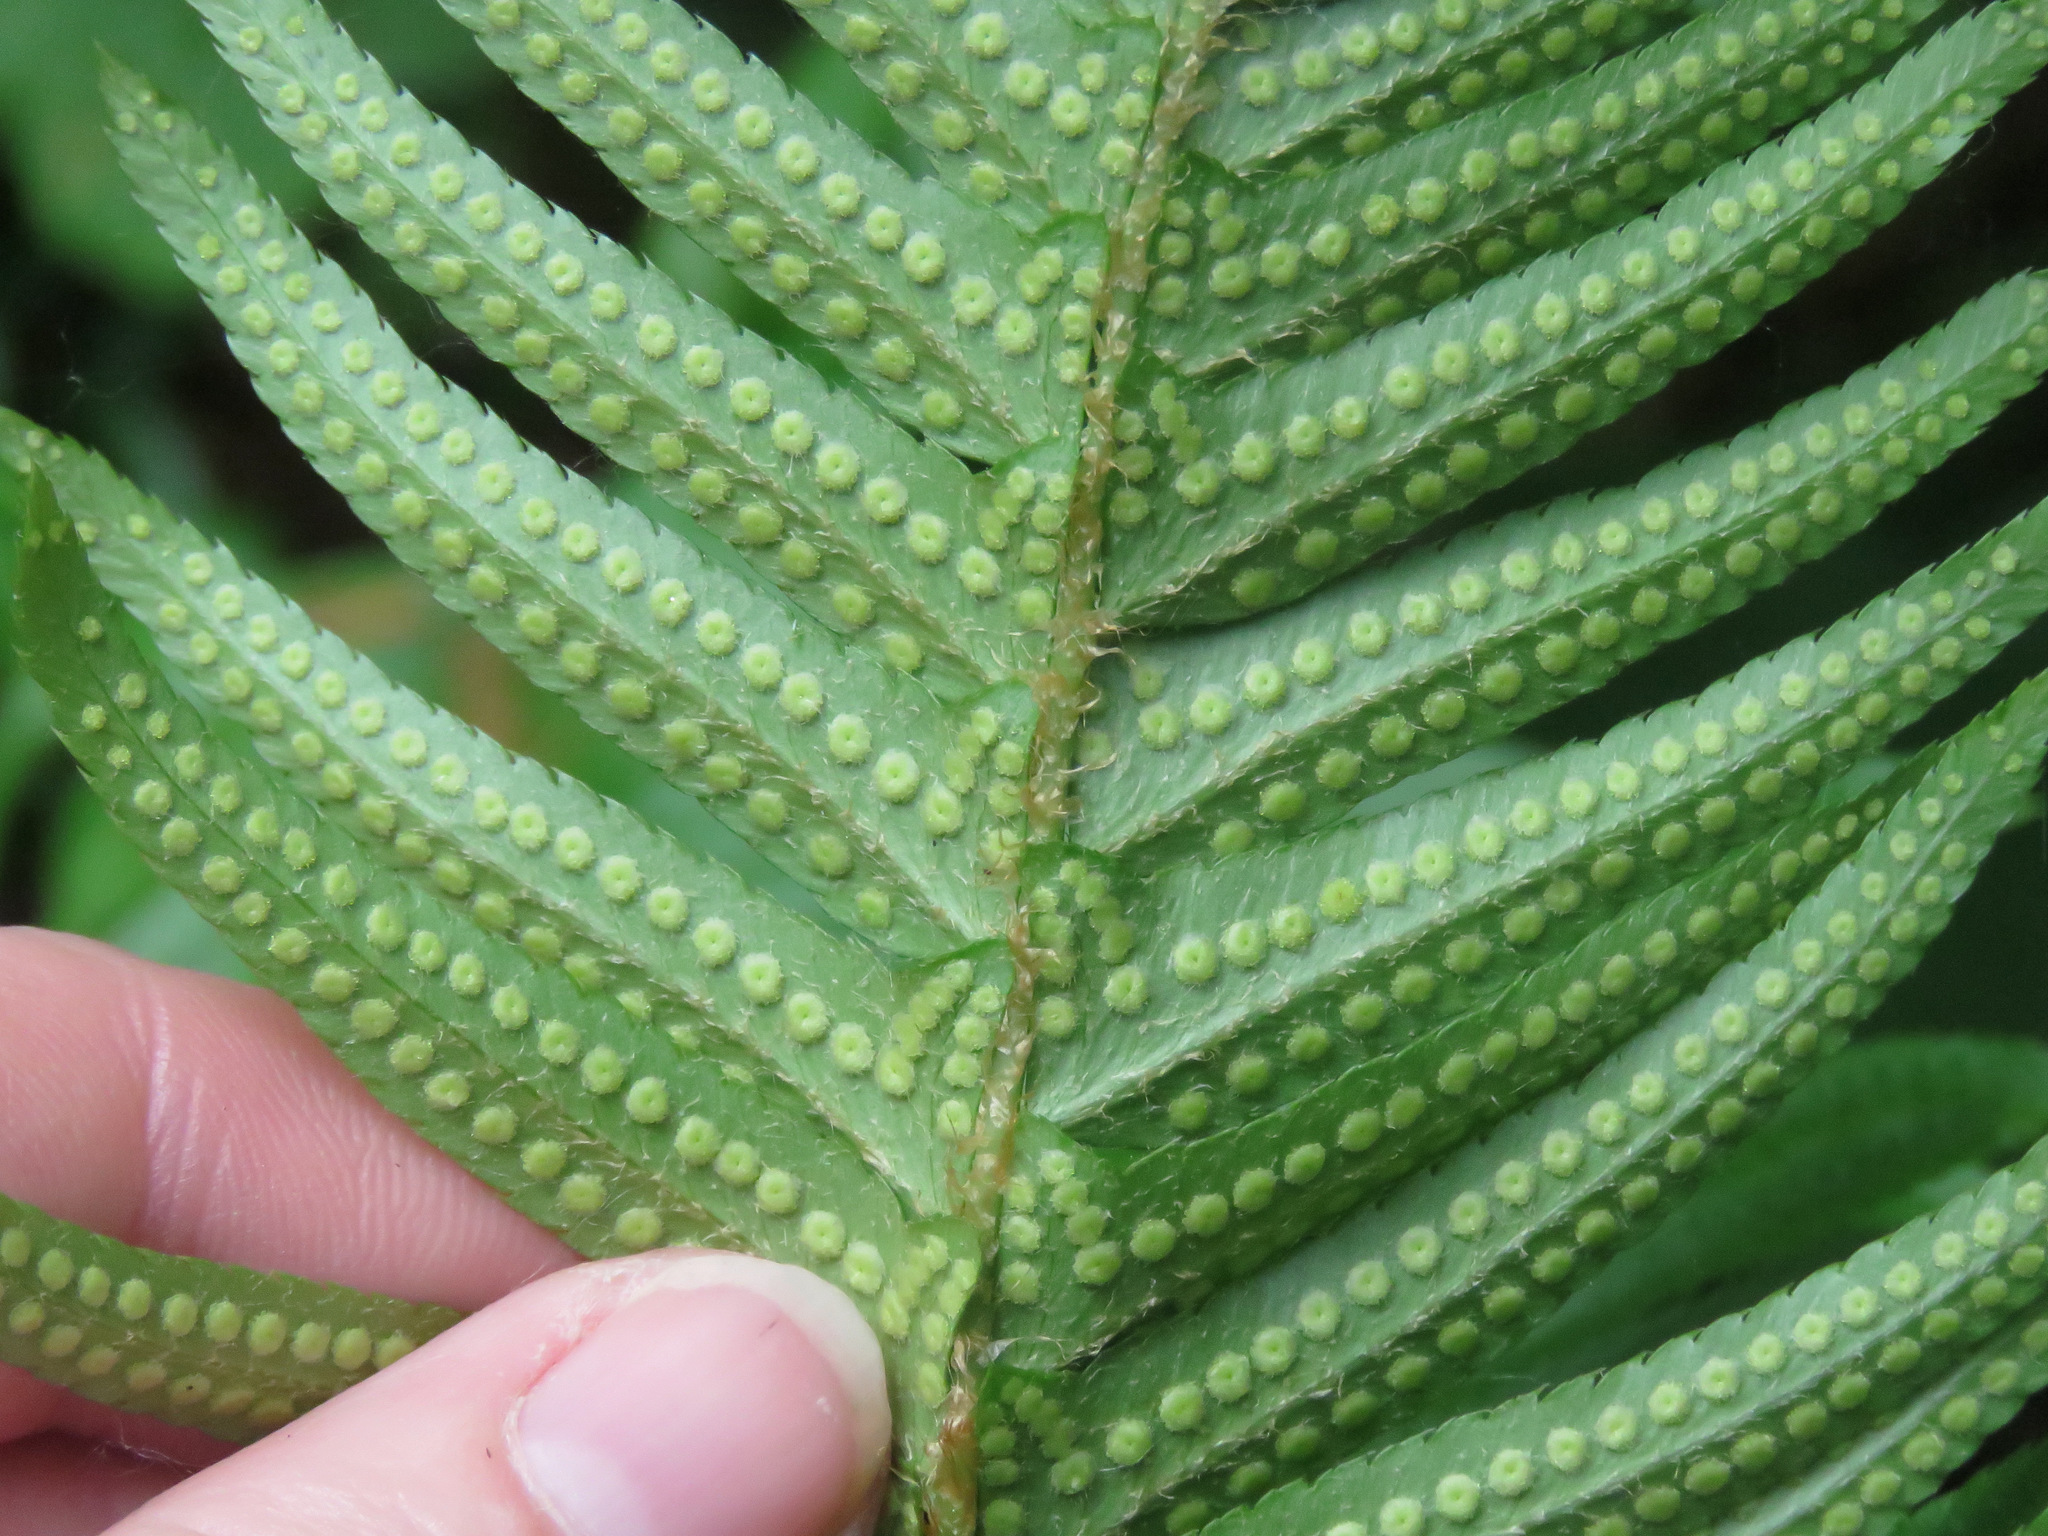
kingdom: Plantae
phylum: Tracheophyta
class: Polypodiopsida
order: Polypodiales
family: Dryopteridaceae
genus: Polystichum
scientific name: Polystichum munitum
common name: Western sword-fern
